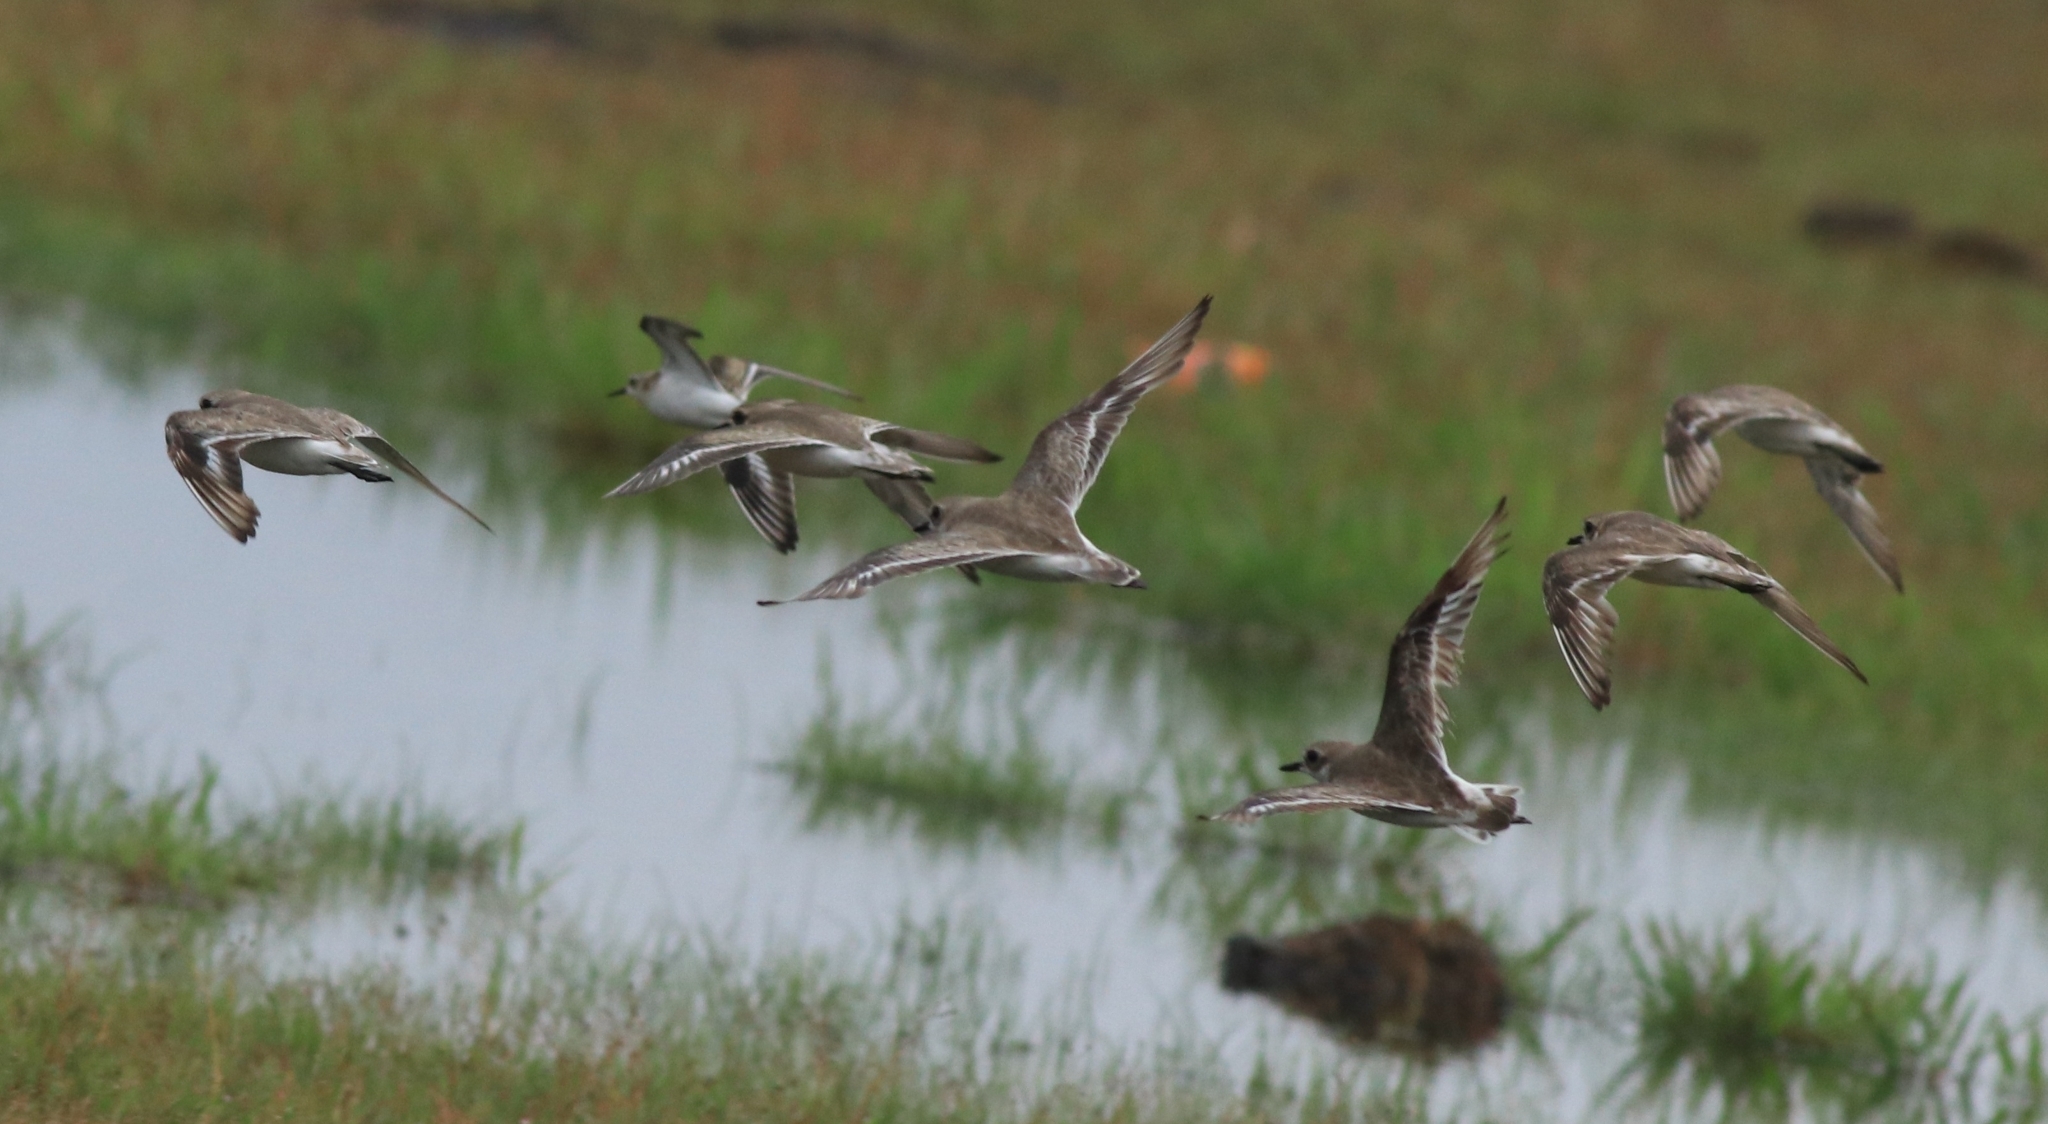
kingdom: Animalia
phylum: Chordata
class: Aves
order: Charadriiformes
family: Charadriidae
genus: Anarhynchus
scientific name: Anarhynchus
